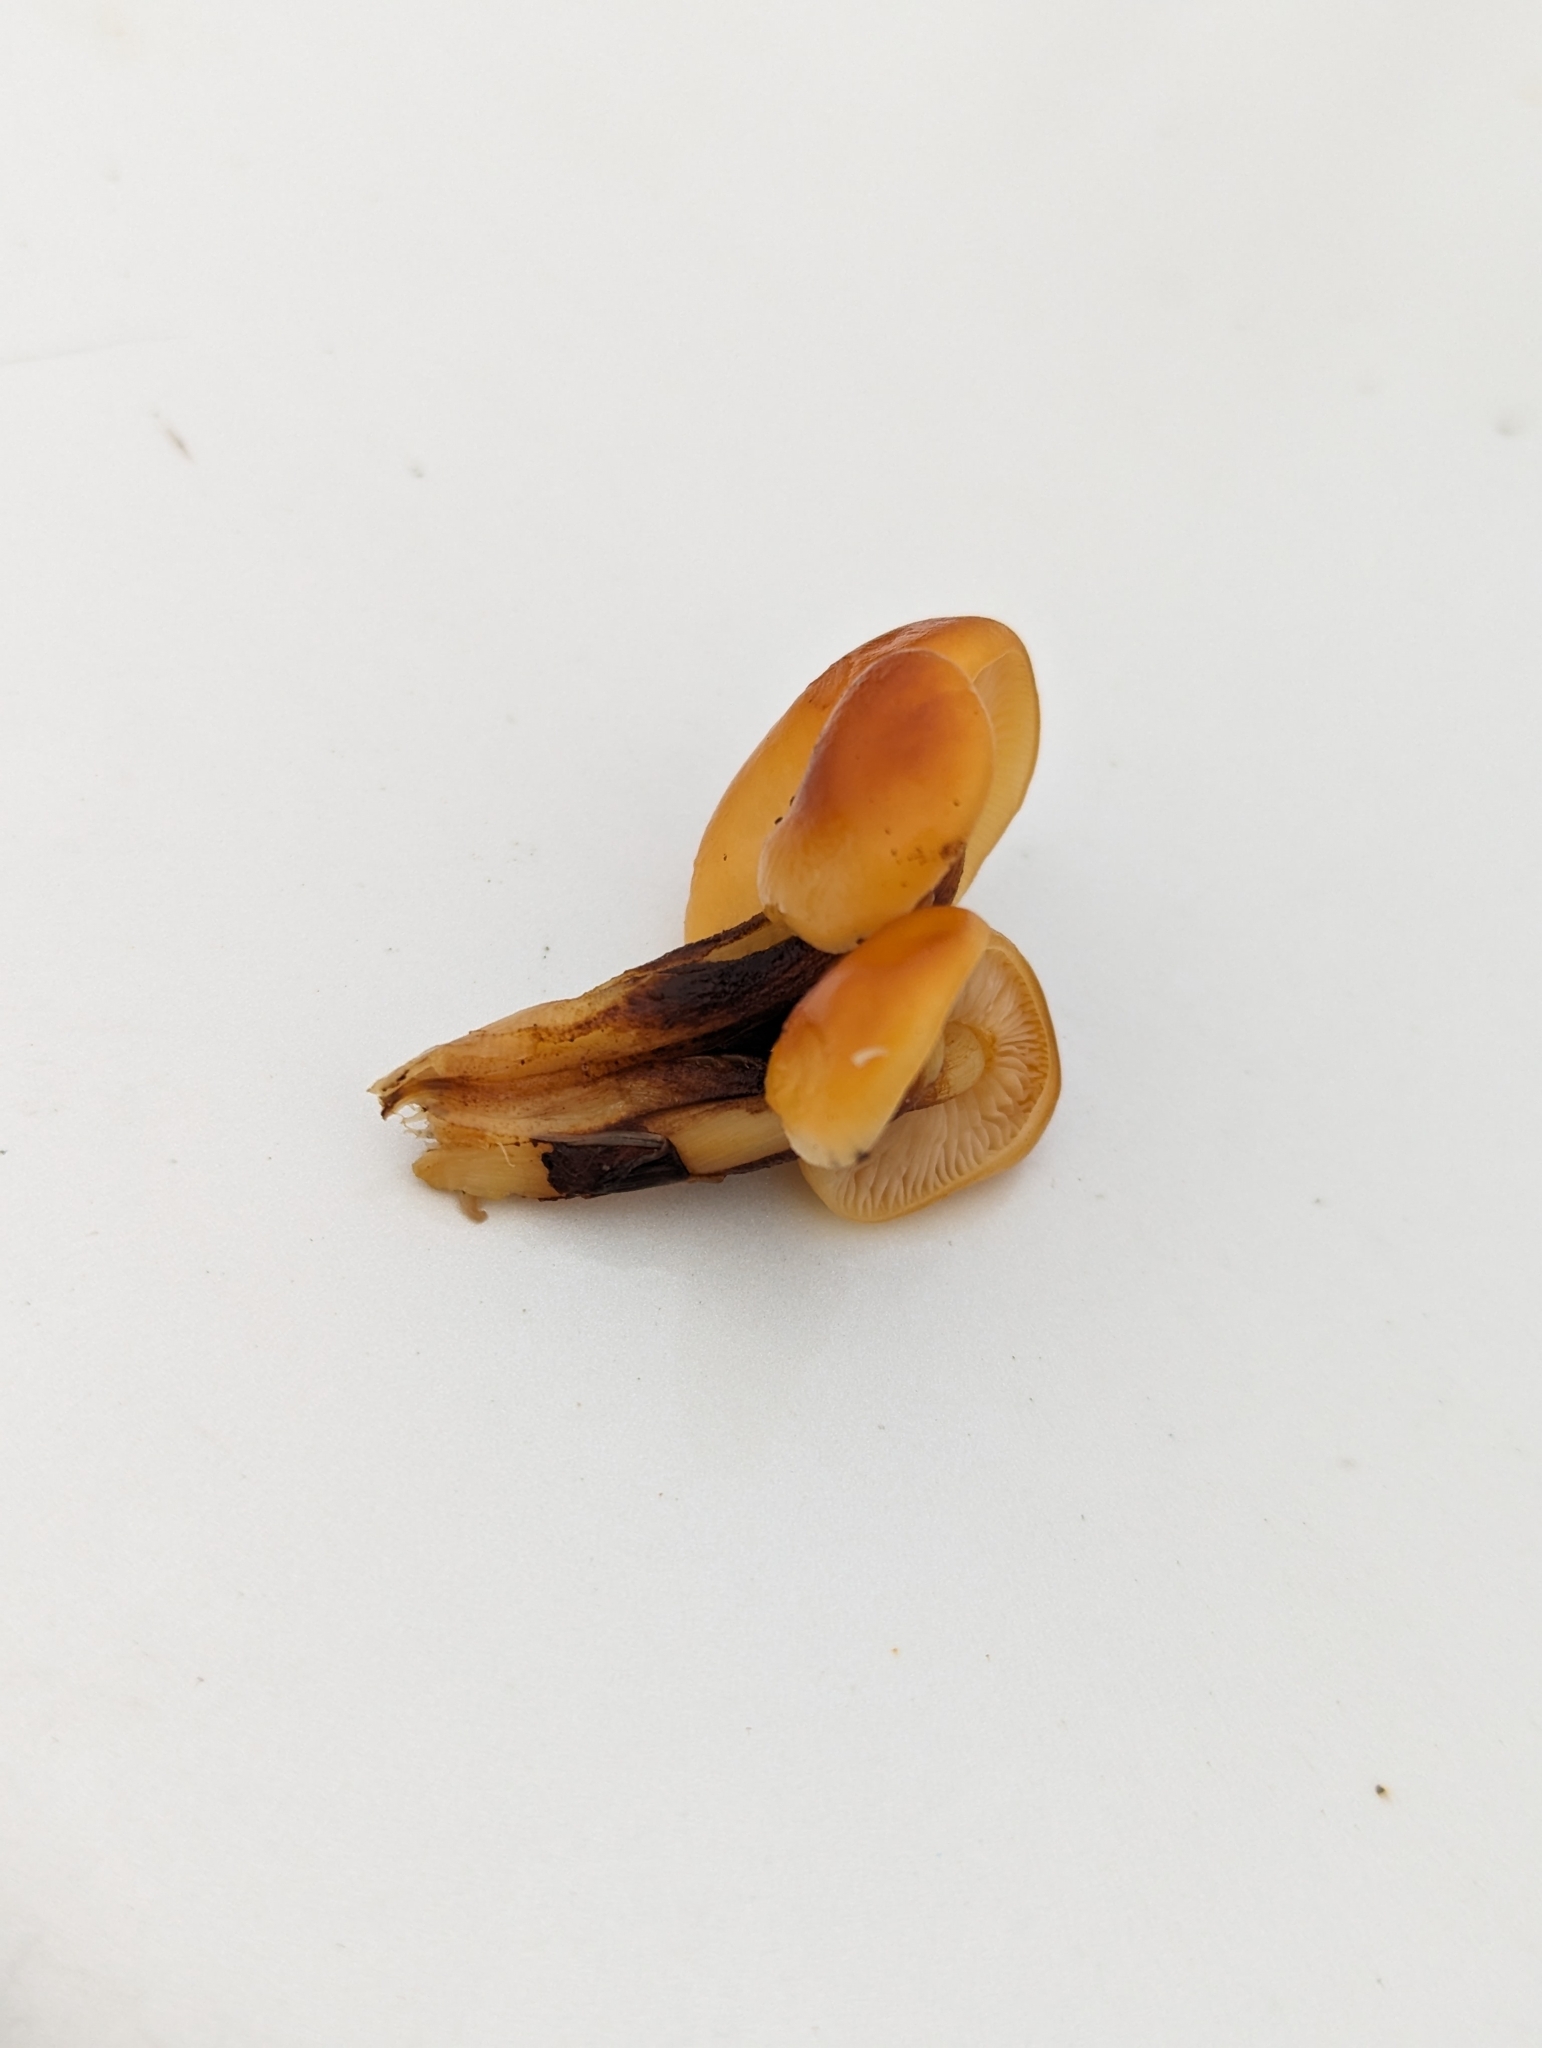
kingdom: Fungi
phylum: Basidiomycota
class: Agaricomycetes
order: Agaricales
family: Physalacriaceae
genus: Flammulina
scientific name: Flammulina velutipes
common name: Velvet shank
